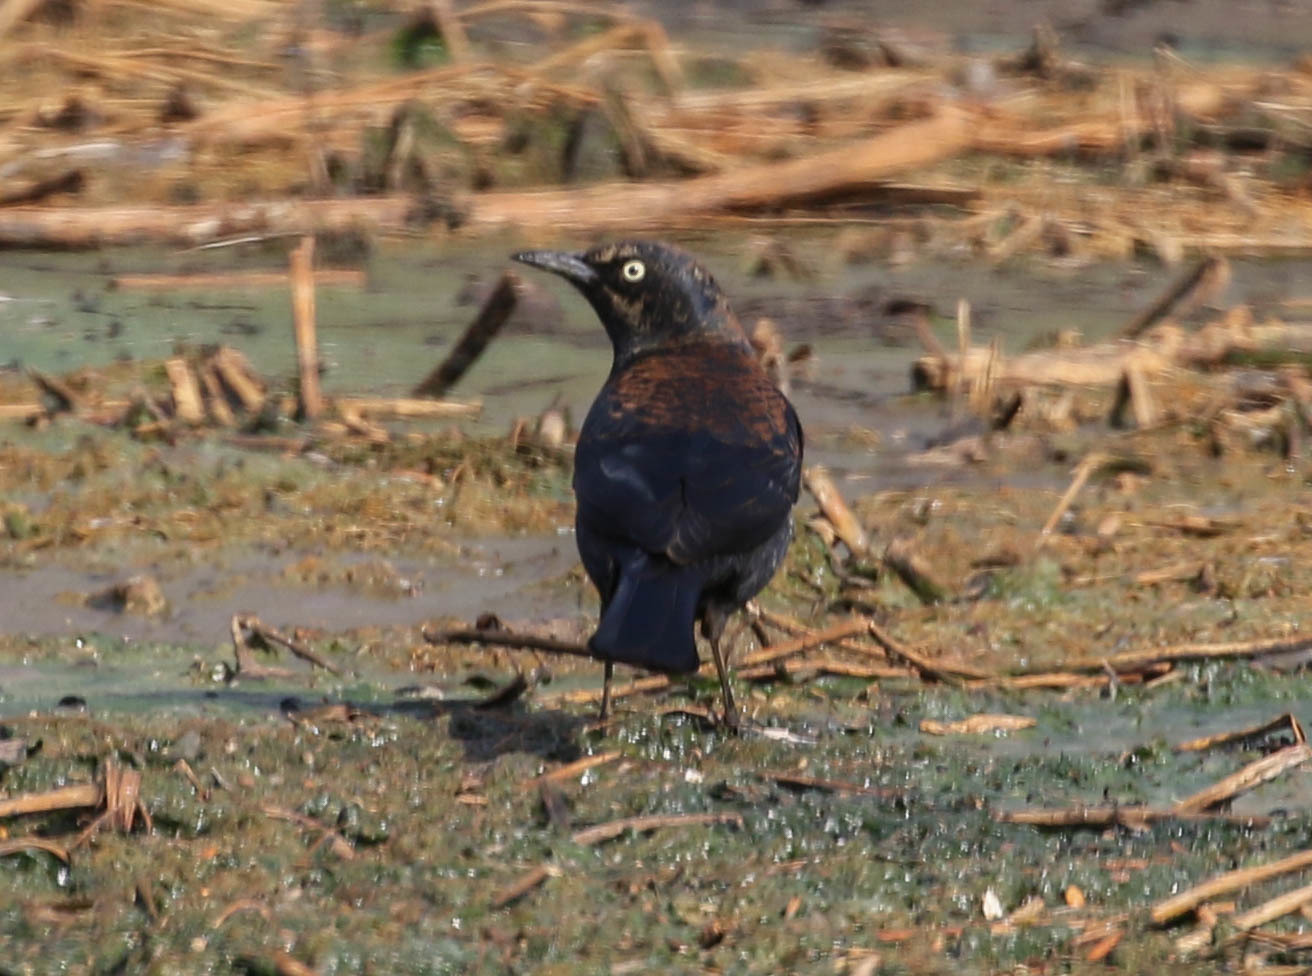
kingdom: Animalia
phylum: Chordata
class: Aves
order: Passeriformes
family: Icteridae
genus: Euphagus
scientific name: Euphagus carolinus
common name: Rusty blackbird
